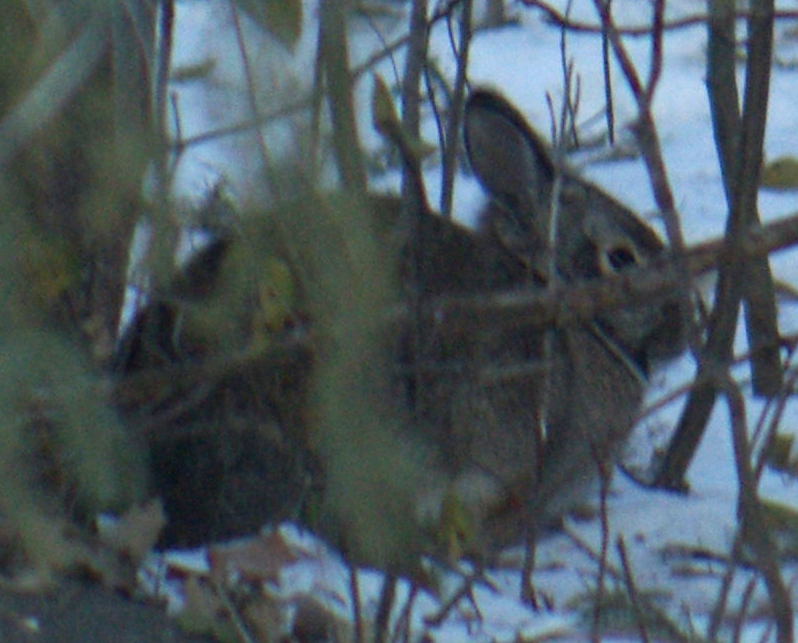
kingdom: Animalia
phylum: Chordata
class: Mammalia
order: Lagomorpha
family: Leporidae
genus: Sylvilagus
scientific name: Sylvilagus floridanus
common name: Eastern cottontail
